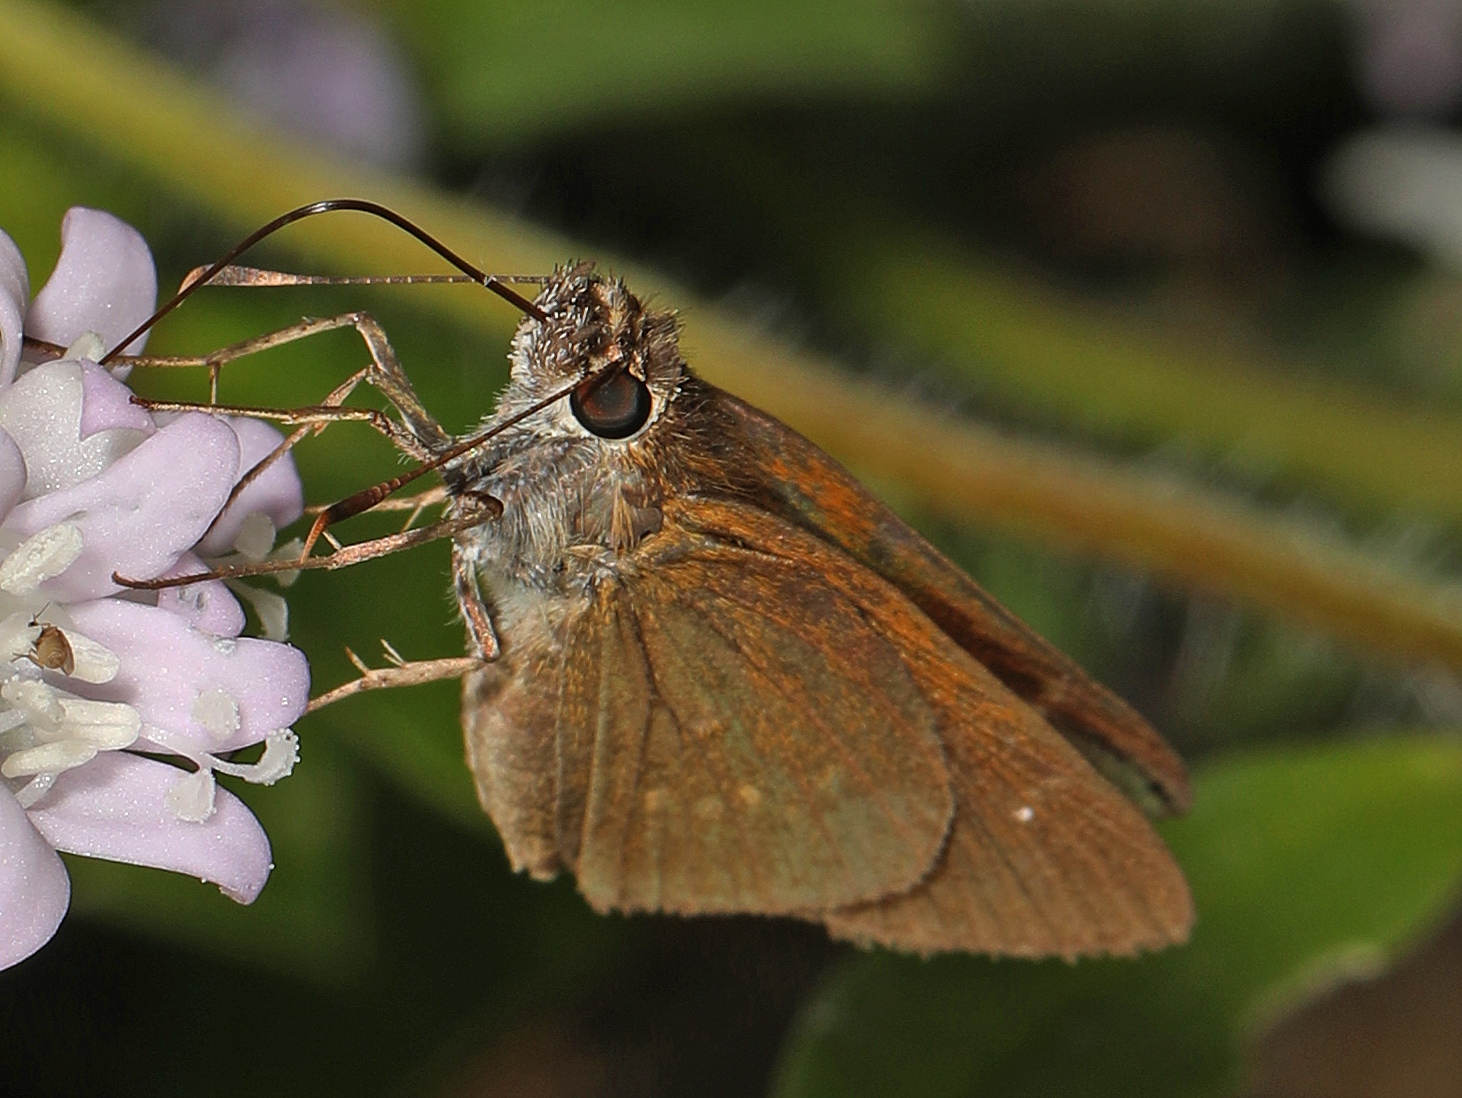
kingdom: Animalia
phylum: Arthropoda
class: Insecta
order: Lepidoptera
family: Hesperiidae
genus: Cymaenes
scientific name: Cymaenes tripunctus
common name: Dingy dotted skipper
